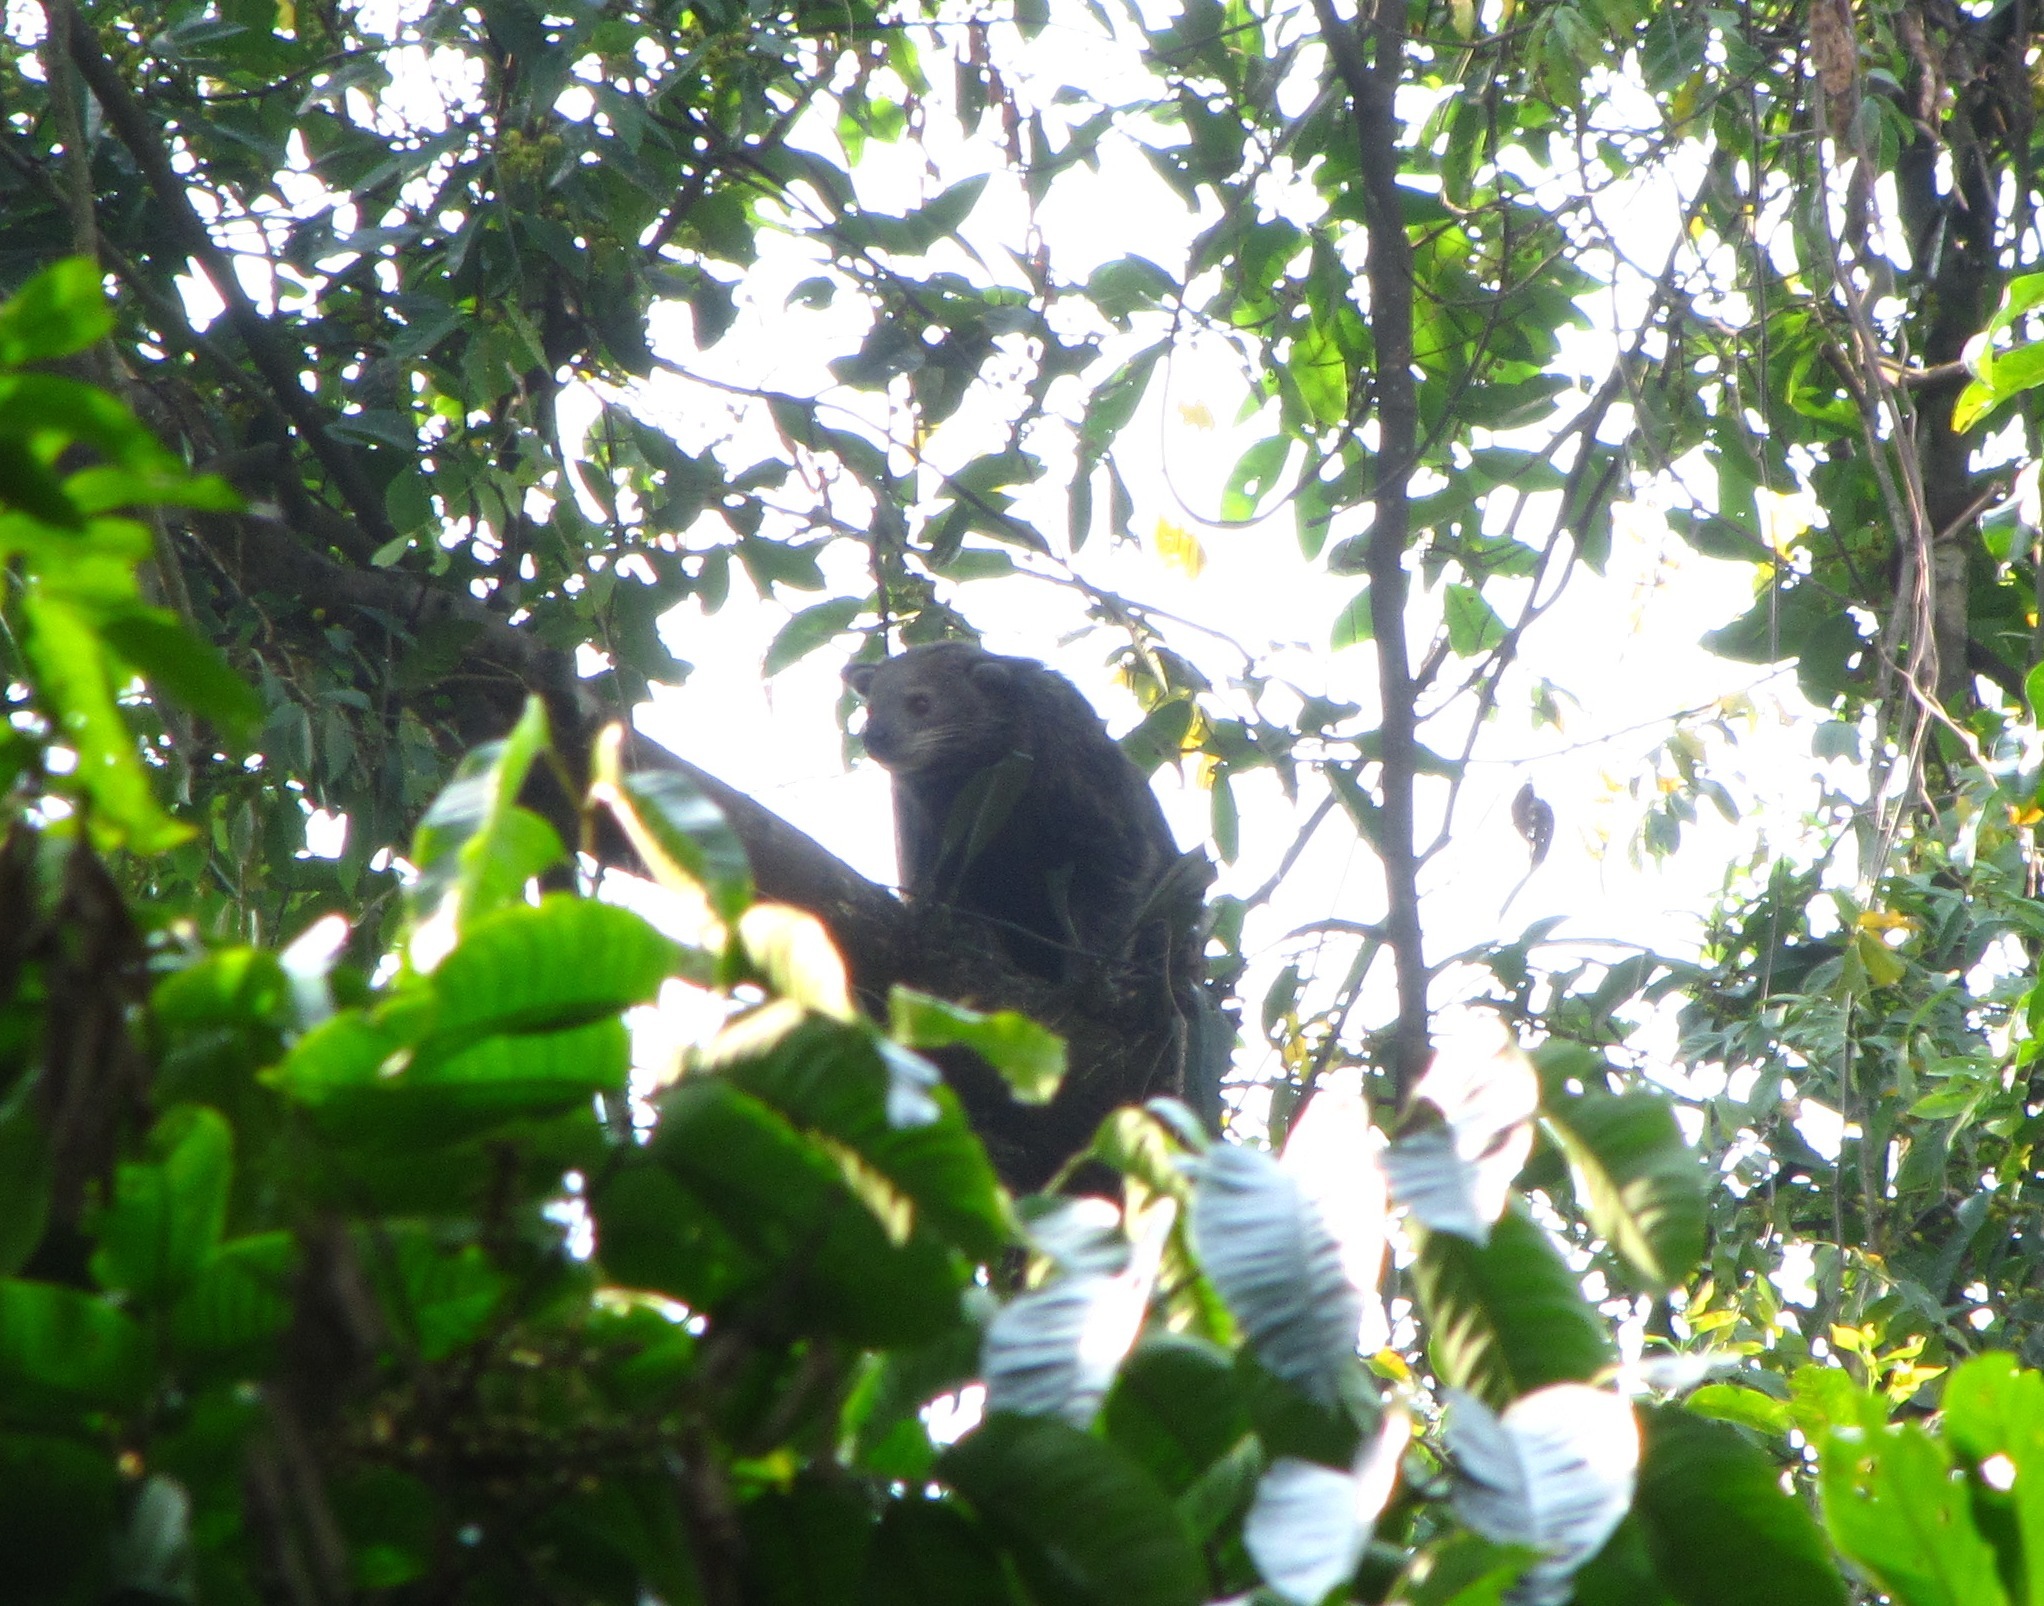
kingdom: Animalia
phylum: Chordata
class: Mammalia
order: Carnivora
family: Viverridae
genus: Arctictis
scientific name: Arctictis binturong
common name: Binturong
